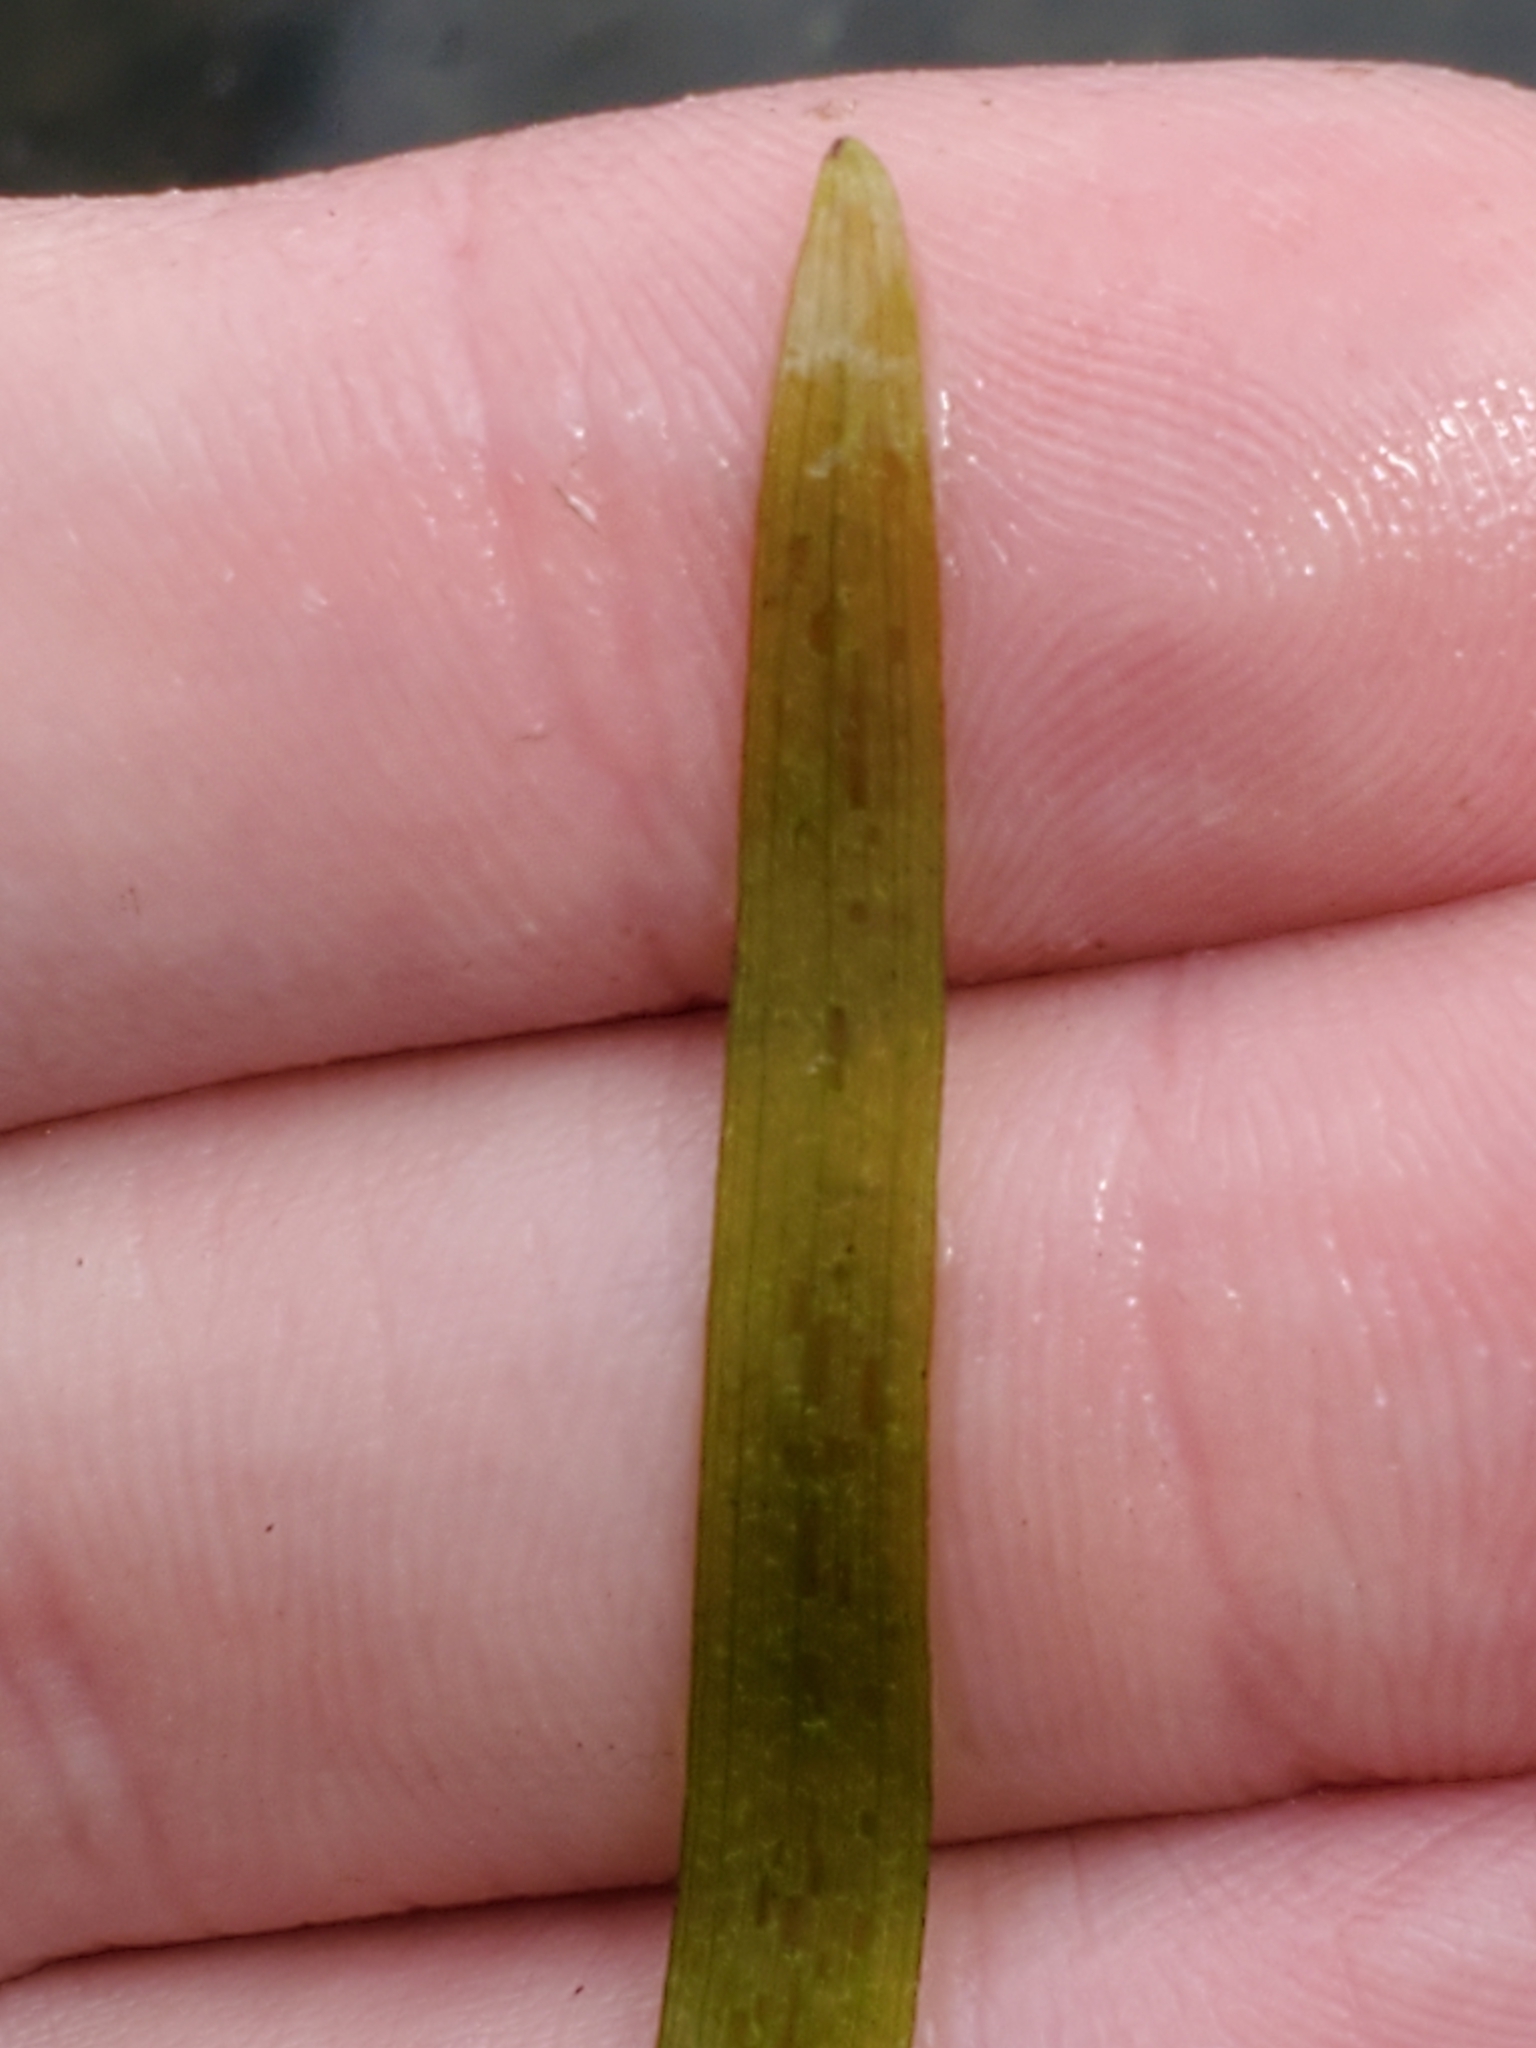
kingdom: Plantae
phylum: Tracheophyta
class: Liliopsida
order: Commelinales
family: Pontederiaceae
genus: Heteranthera
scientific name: Heteranthera dubia
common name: Grass-leaved mud plantain
